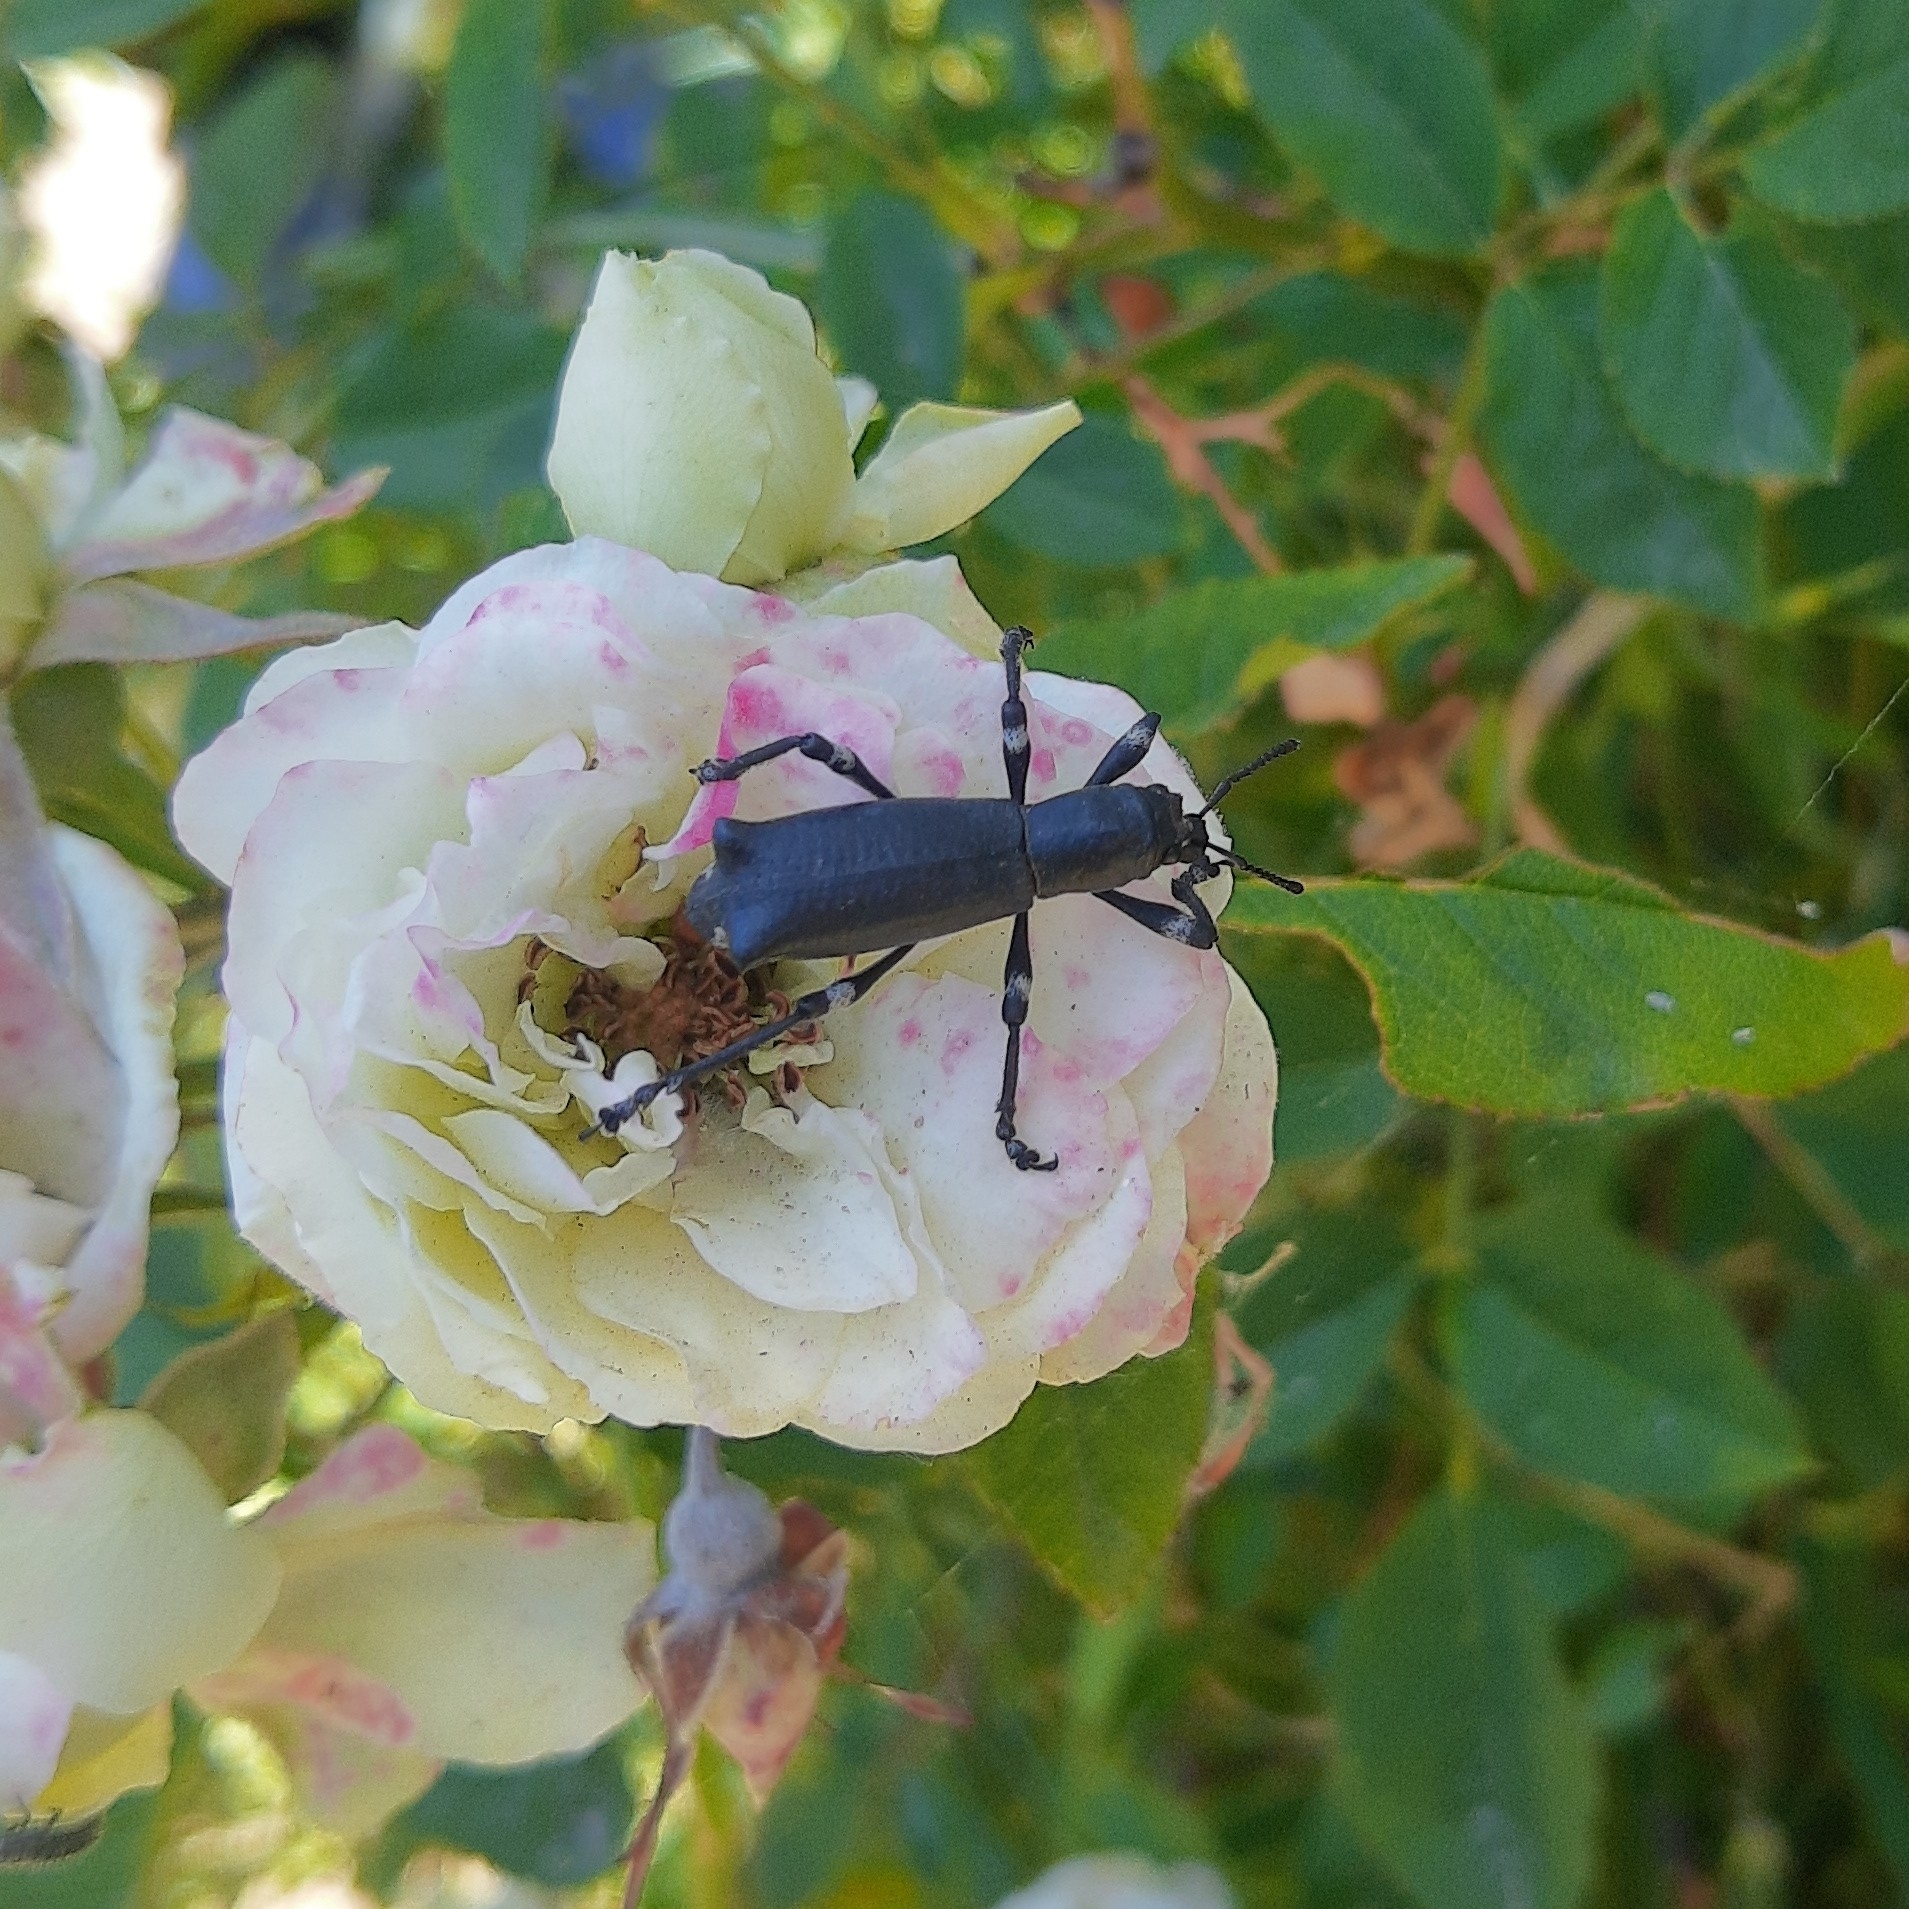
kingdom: Animalia
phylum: Arthropoda
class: Insecta
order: Coleoptera
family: Curculionidae
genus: Aegorhinus
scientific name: Aegorhinus
